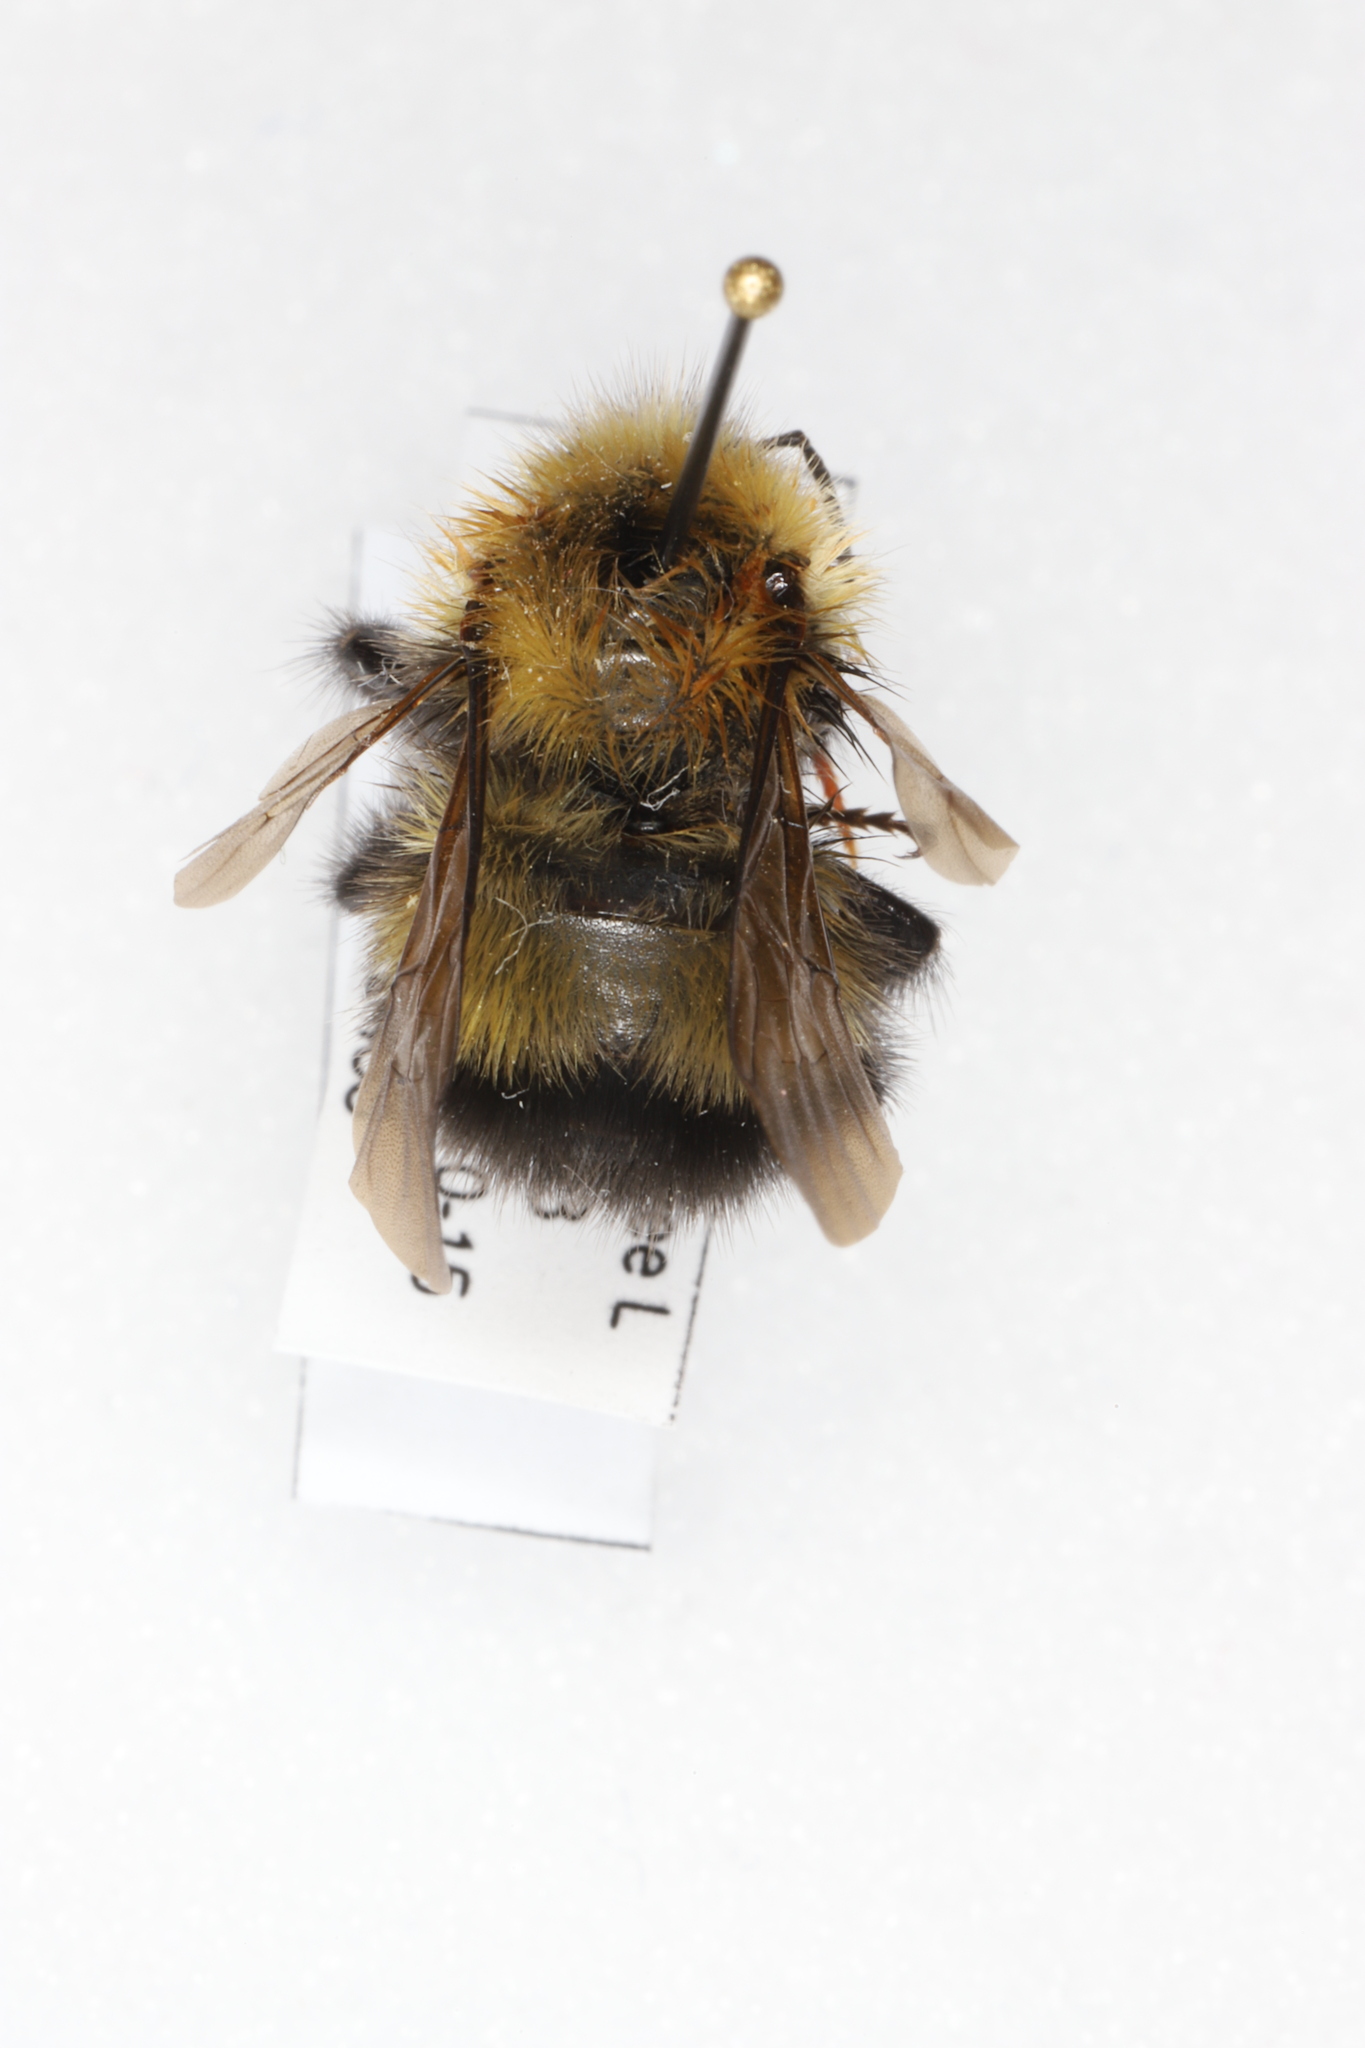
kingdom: Animalia
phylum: Arthropoda
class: Insecta
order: Hymenoptera
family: Apidae
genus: Bombus
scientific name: Bombus perplexus
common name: Confusing bumble bee
